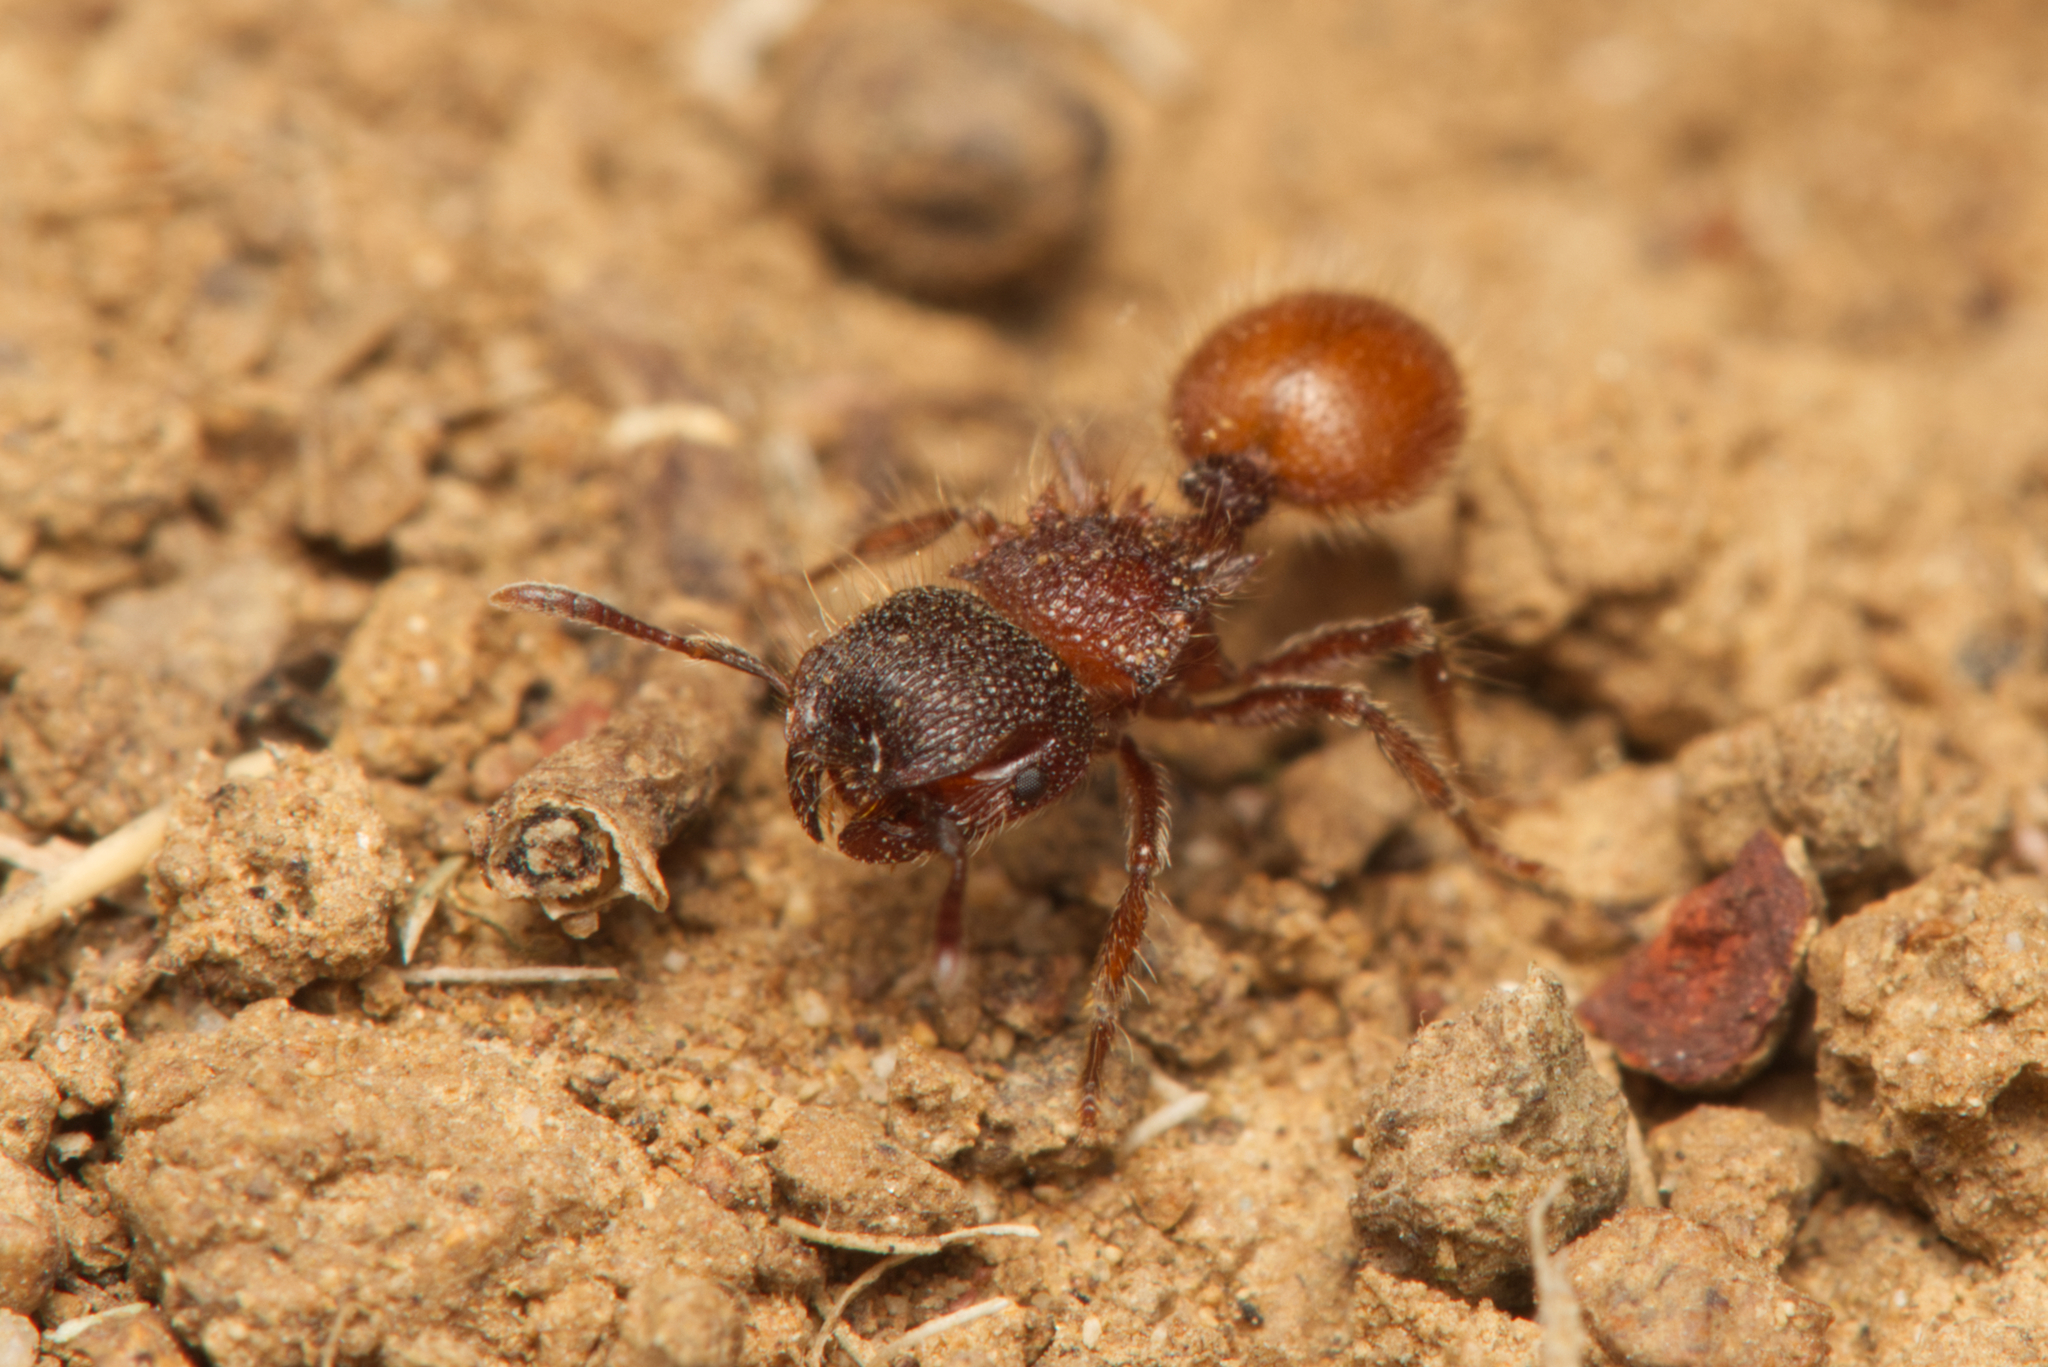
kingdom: Animalia
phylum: Arthropoda
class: Insecta
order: Hymenoptera
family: Formicidae
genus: Meranoplus
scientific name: Meranoplus wilsoni
